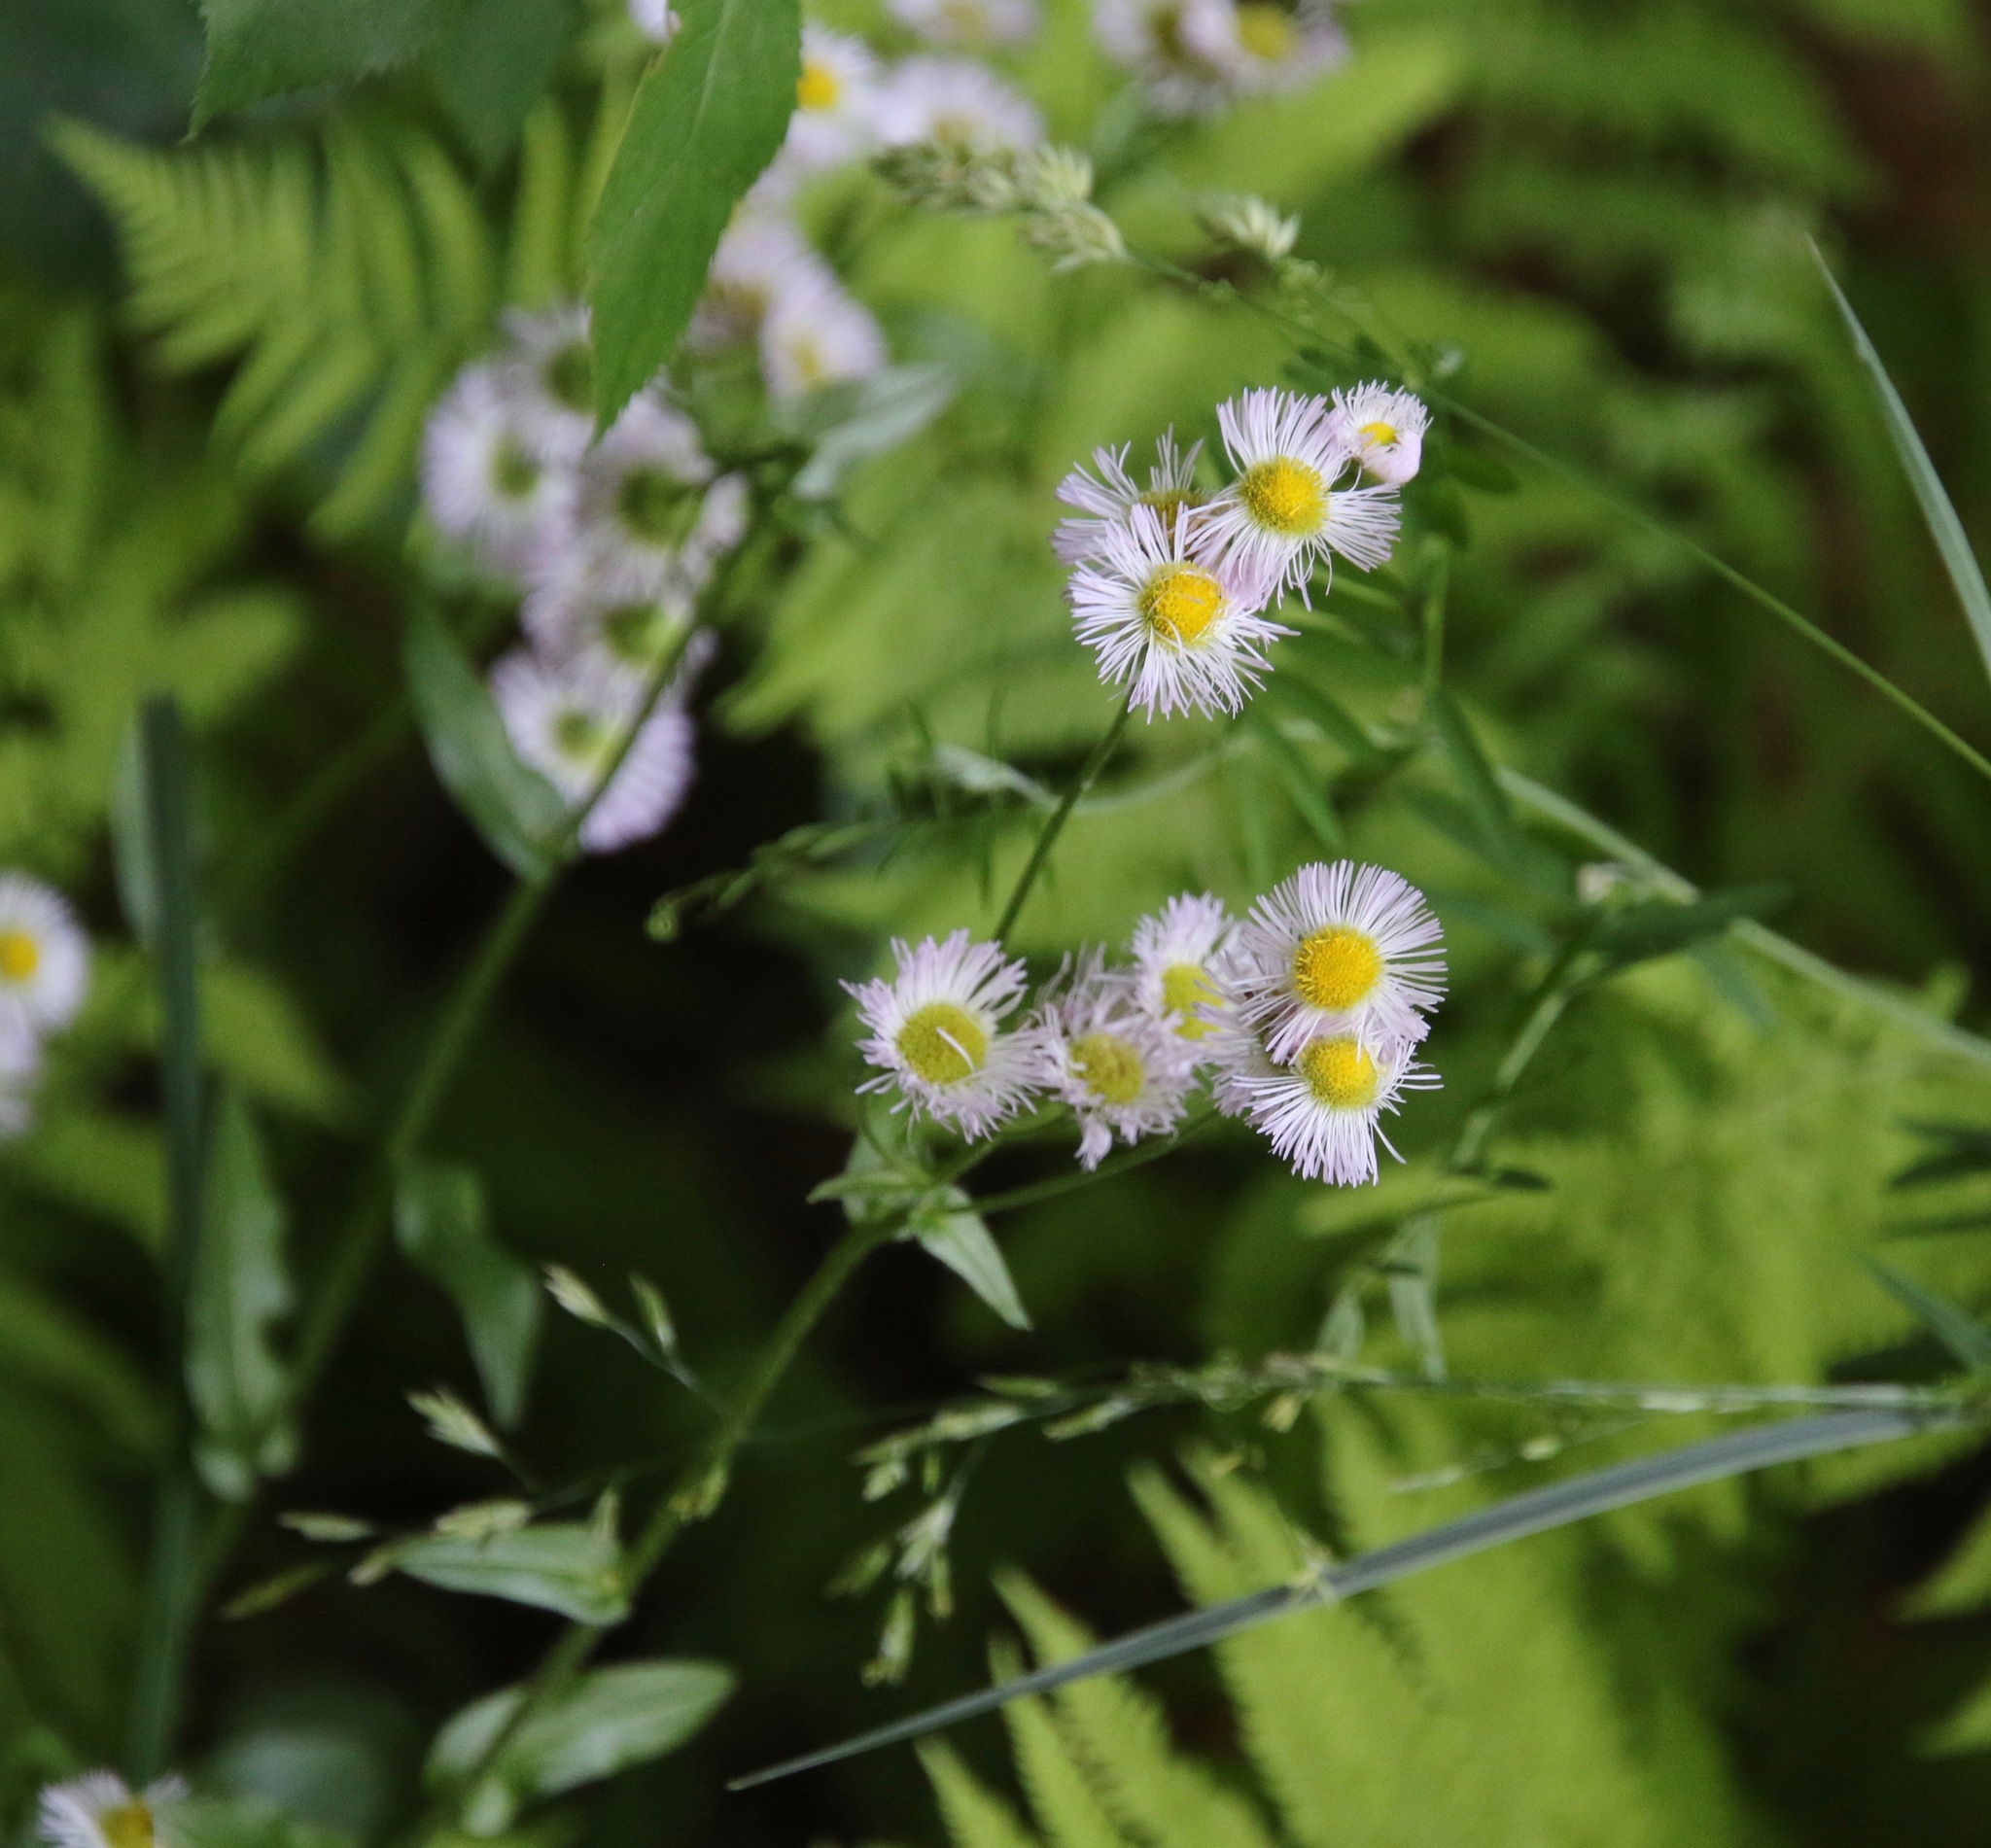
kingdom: Plantae
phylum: Tracheophyta
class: Magnoliopsida
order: Asterales
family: Asteraceae
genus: Erigeron
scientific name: Erigeron philadelphicus
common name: Robin's-plantain
